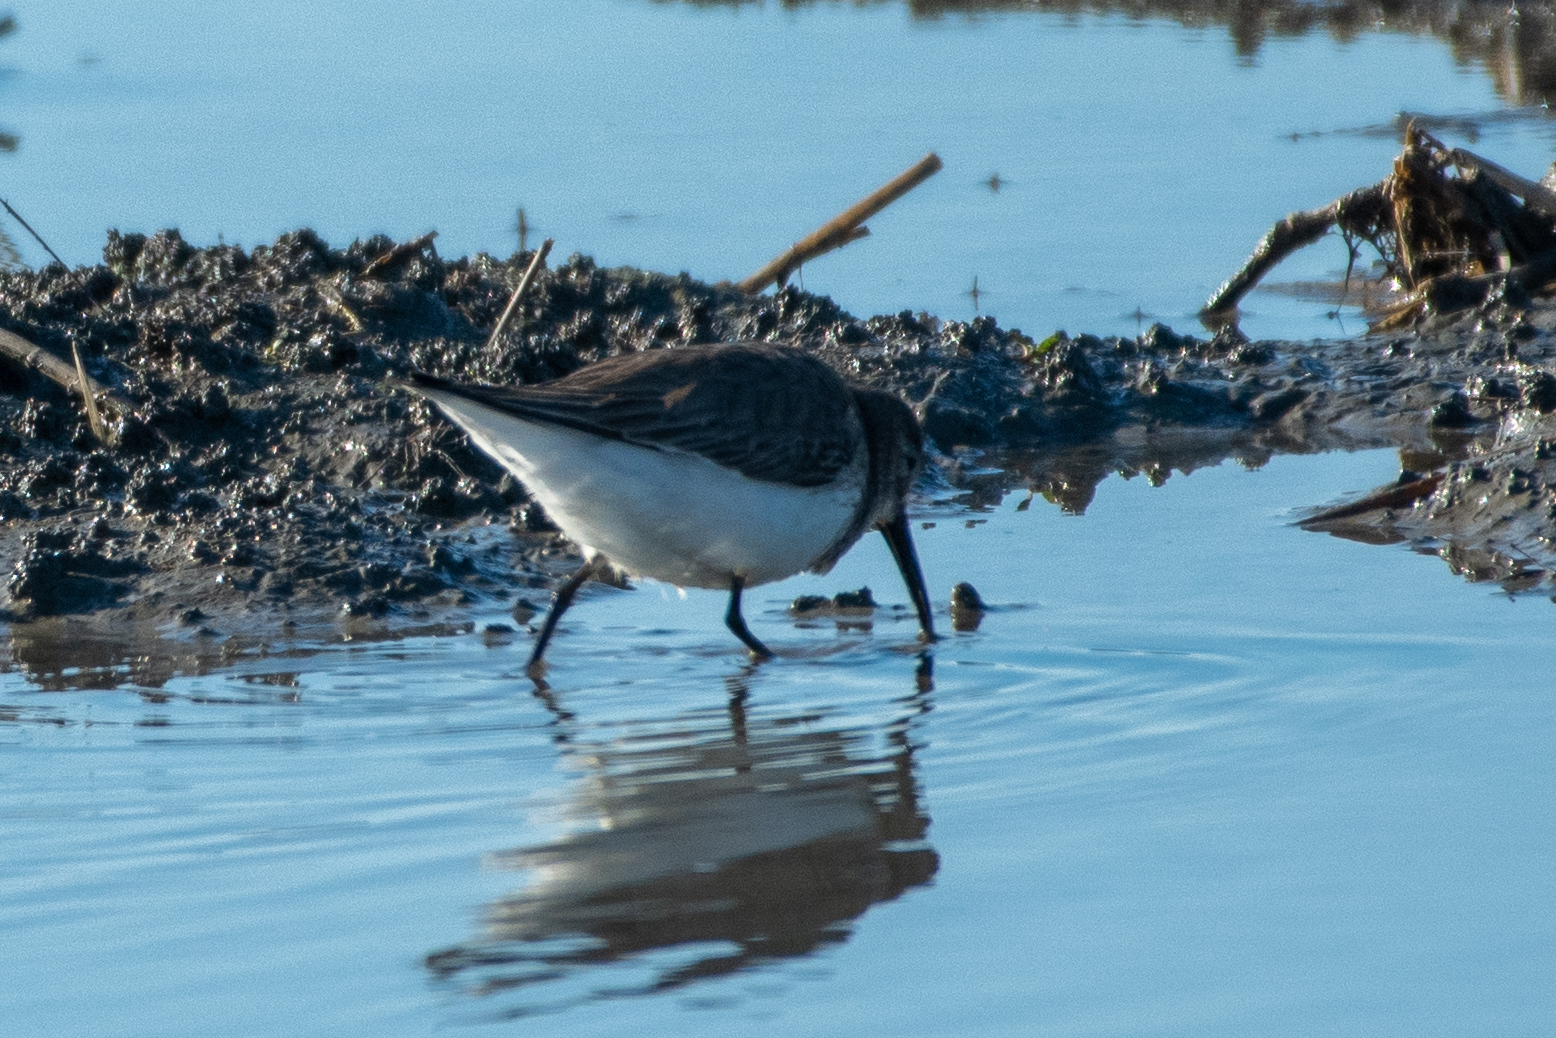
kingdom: Animalia
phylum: Chordata
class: Aves
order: Charadriiformes
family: Scolopacidae
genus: Calidris
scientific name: Calidris alpina
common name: Dunlin
